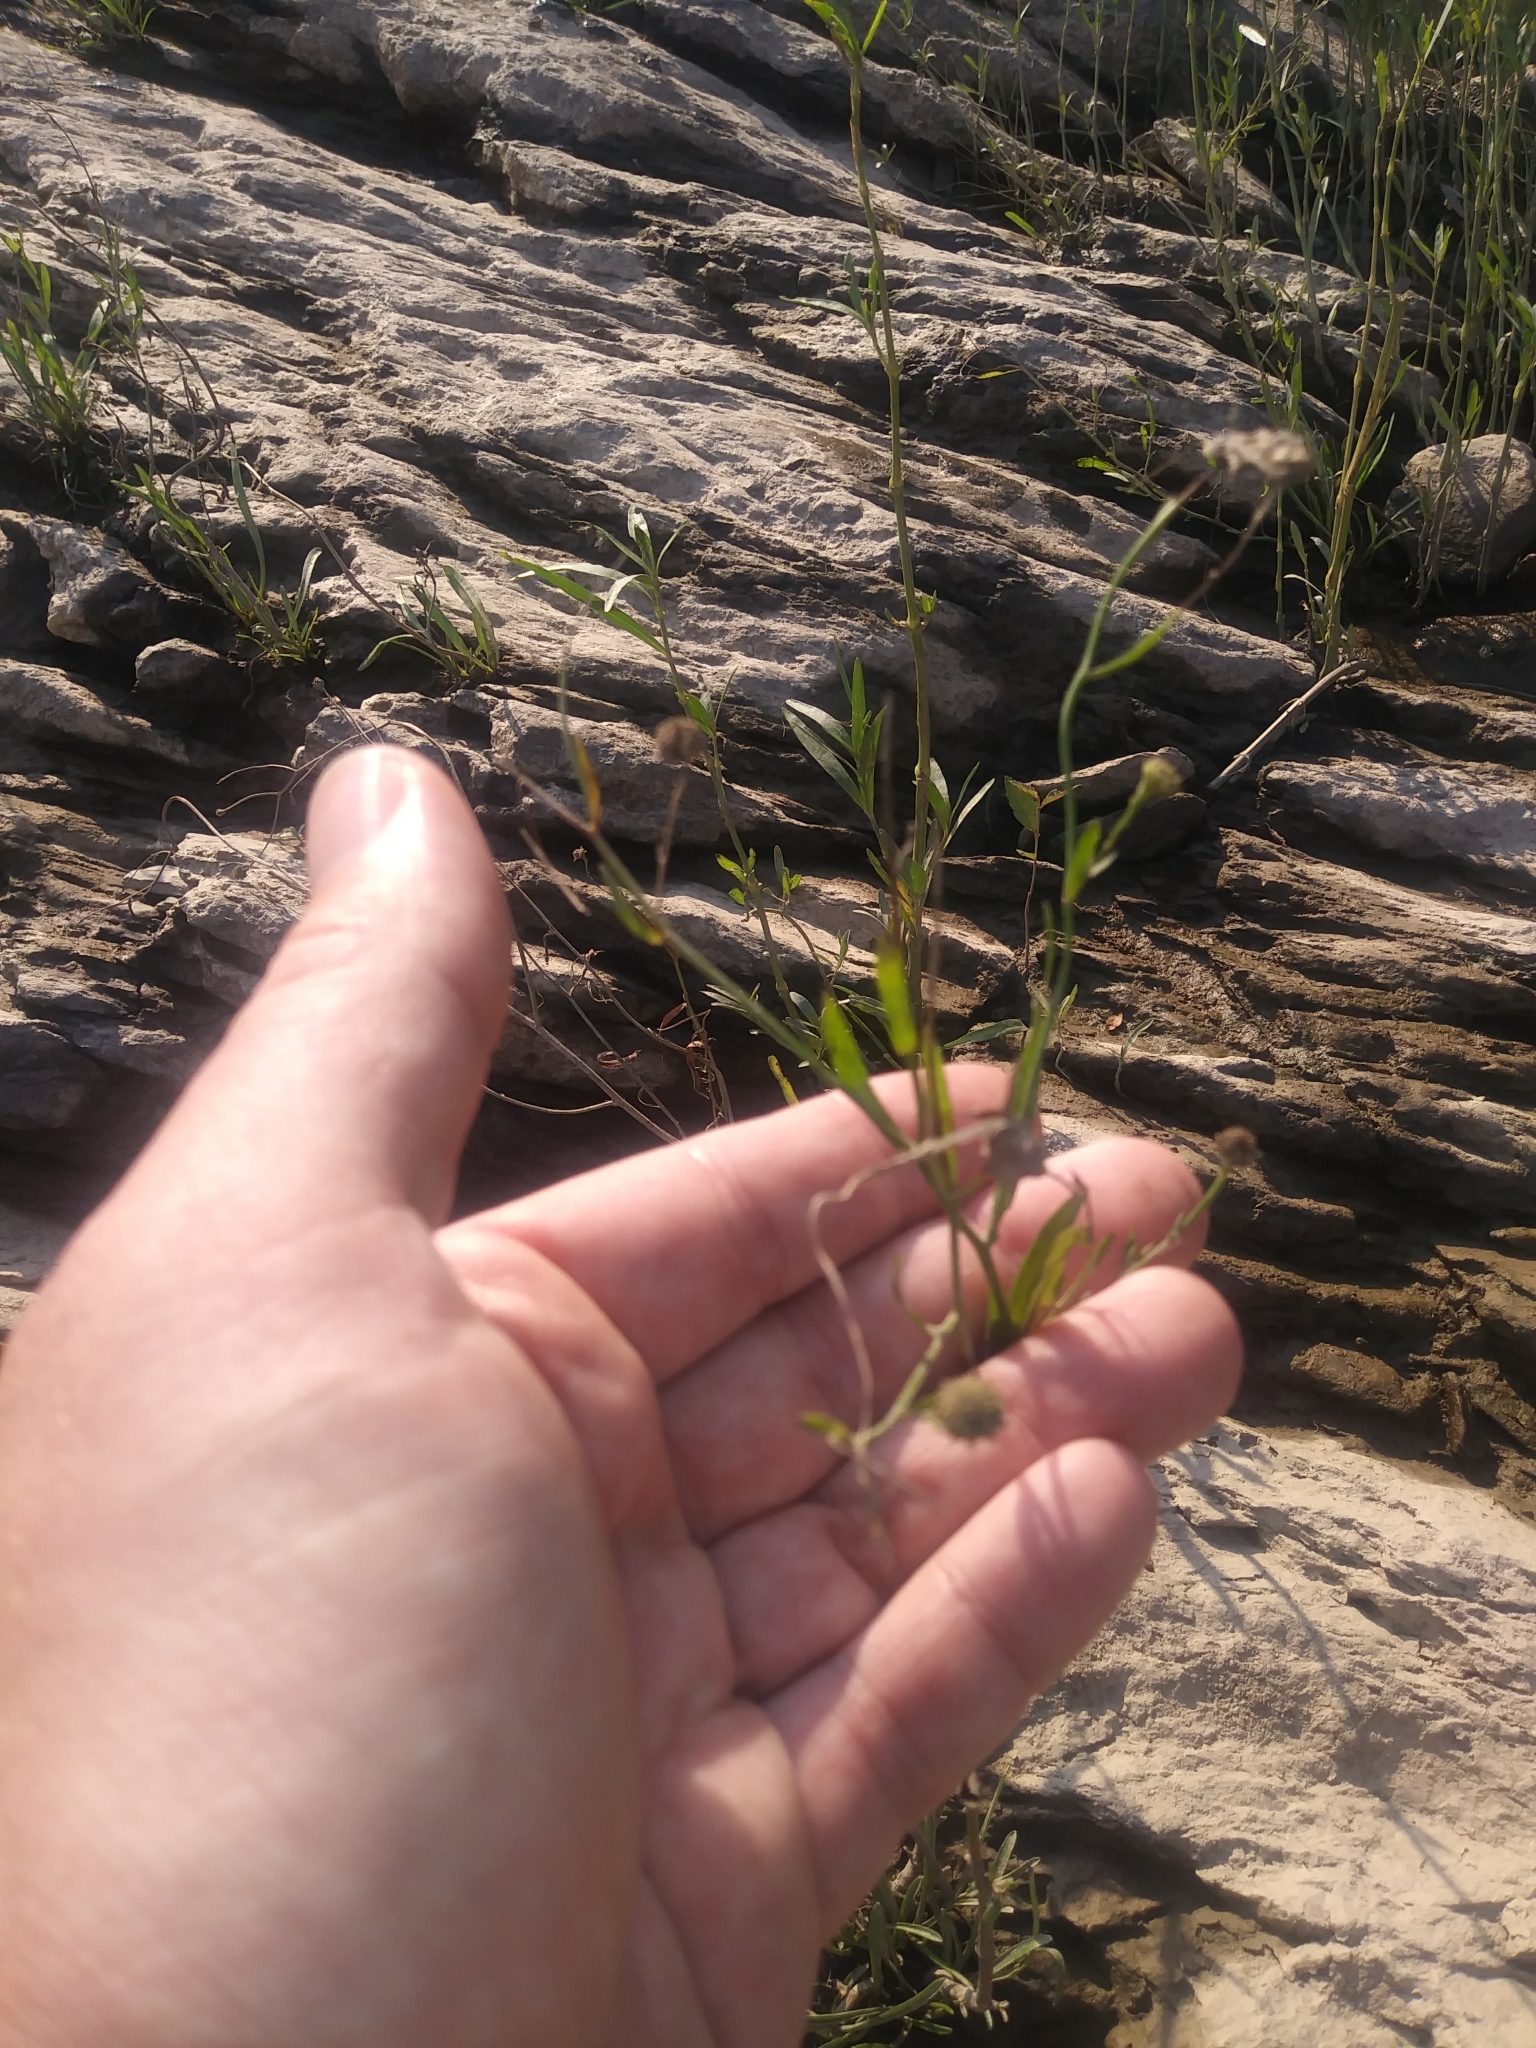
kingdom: Plantae
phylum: Tracheophyta
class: Magnoliopsida
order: Asterales
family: Asteraceae
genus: Boltonia
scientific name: Boltonia asteroides
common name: False chamomile
